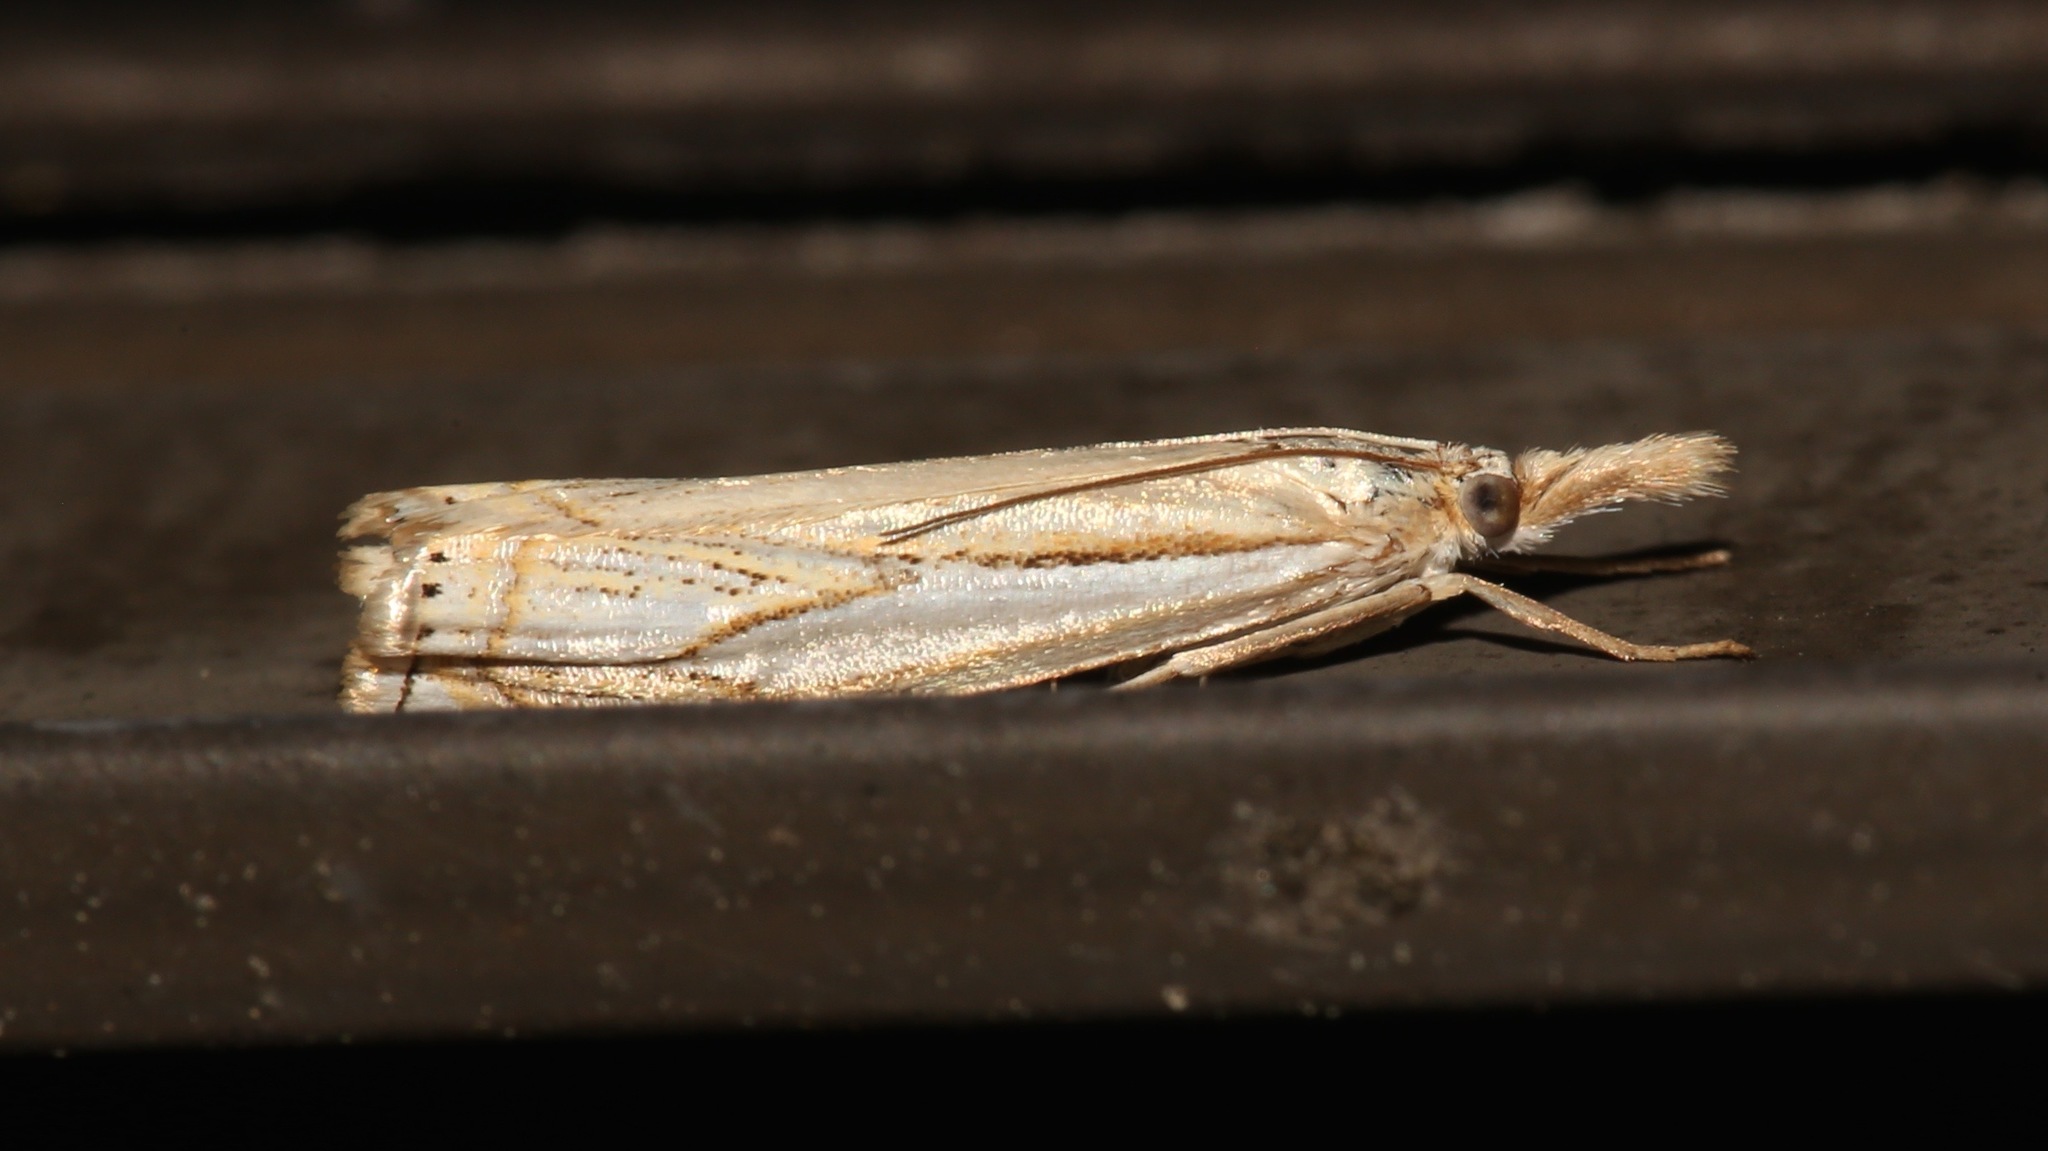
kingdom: Animalia
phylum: Arthropoda
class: Insecta
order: Lepidoptera
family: Crambidae
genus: Crambus
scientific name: Crambus saltuellus
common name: Pasture grass-veneer
